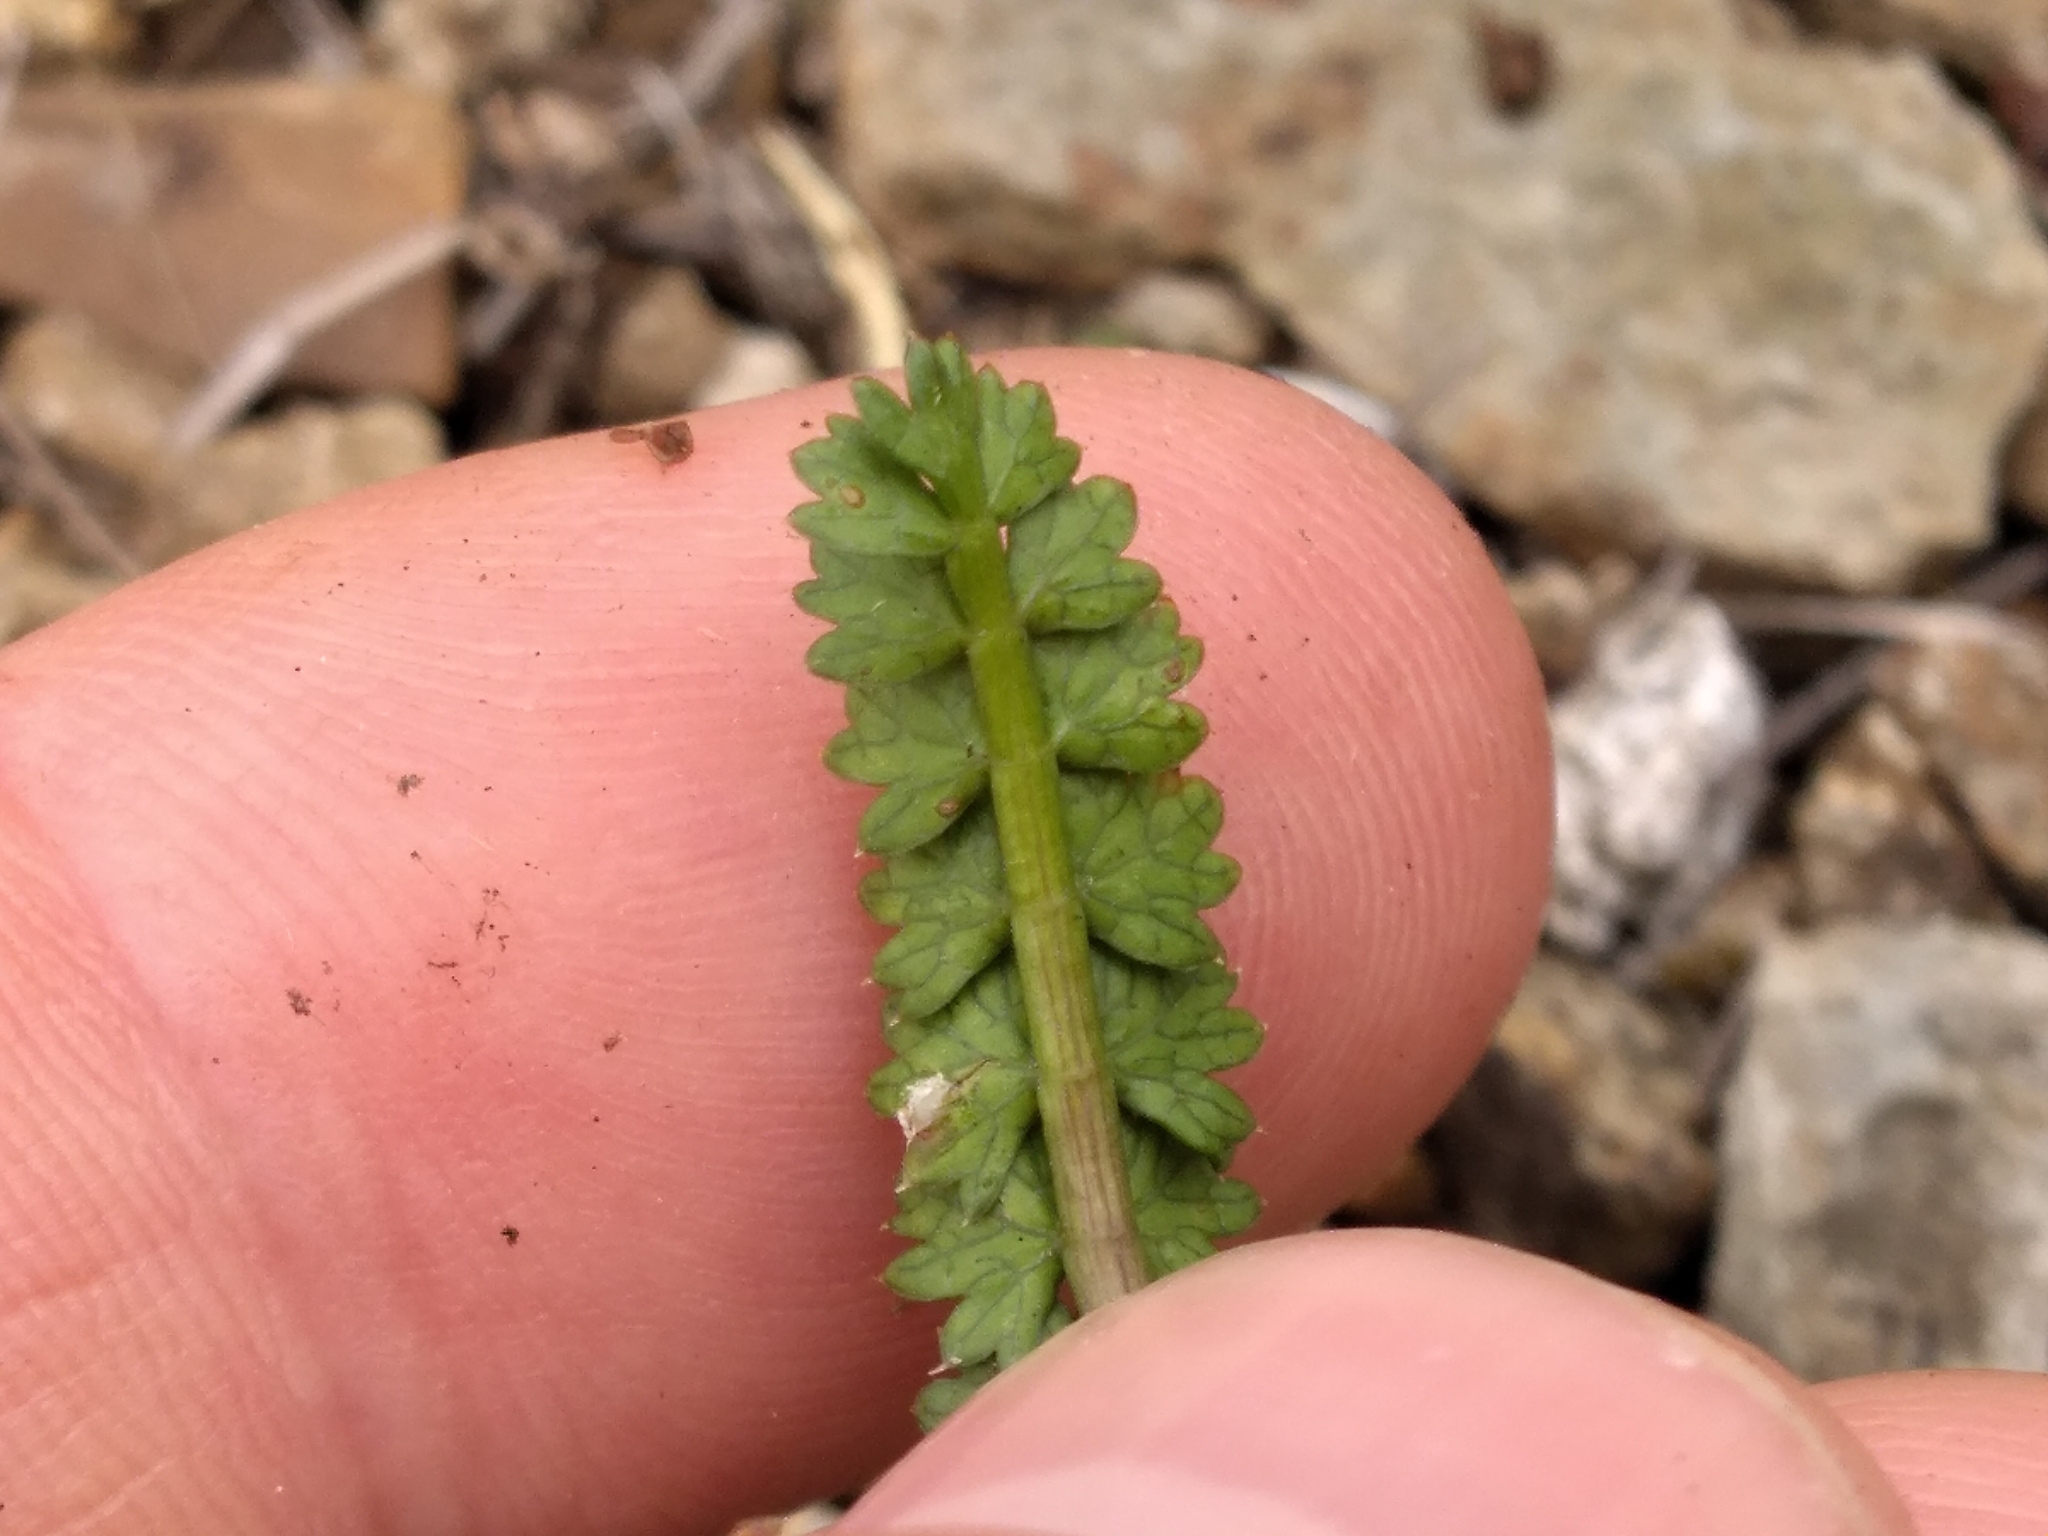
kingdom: Plantae
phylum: Tracheophyta
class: Magnoliopsida
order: Apiales
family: Apiaceae
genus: Anisotome
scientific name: Anisotome aromatica
